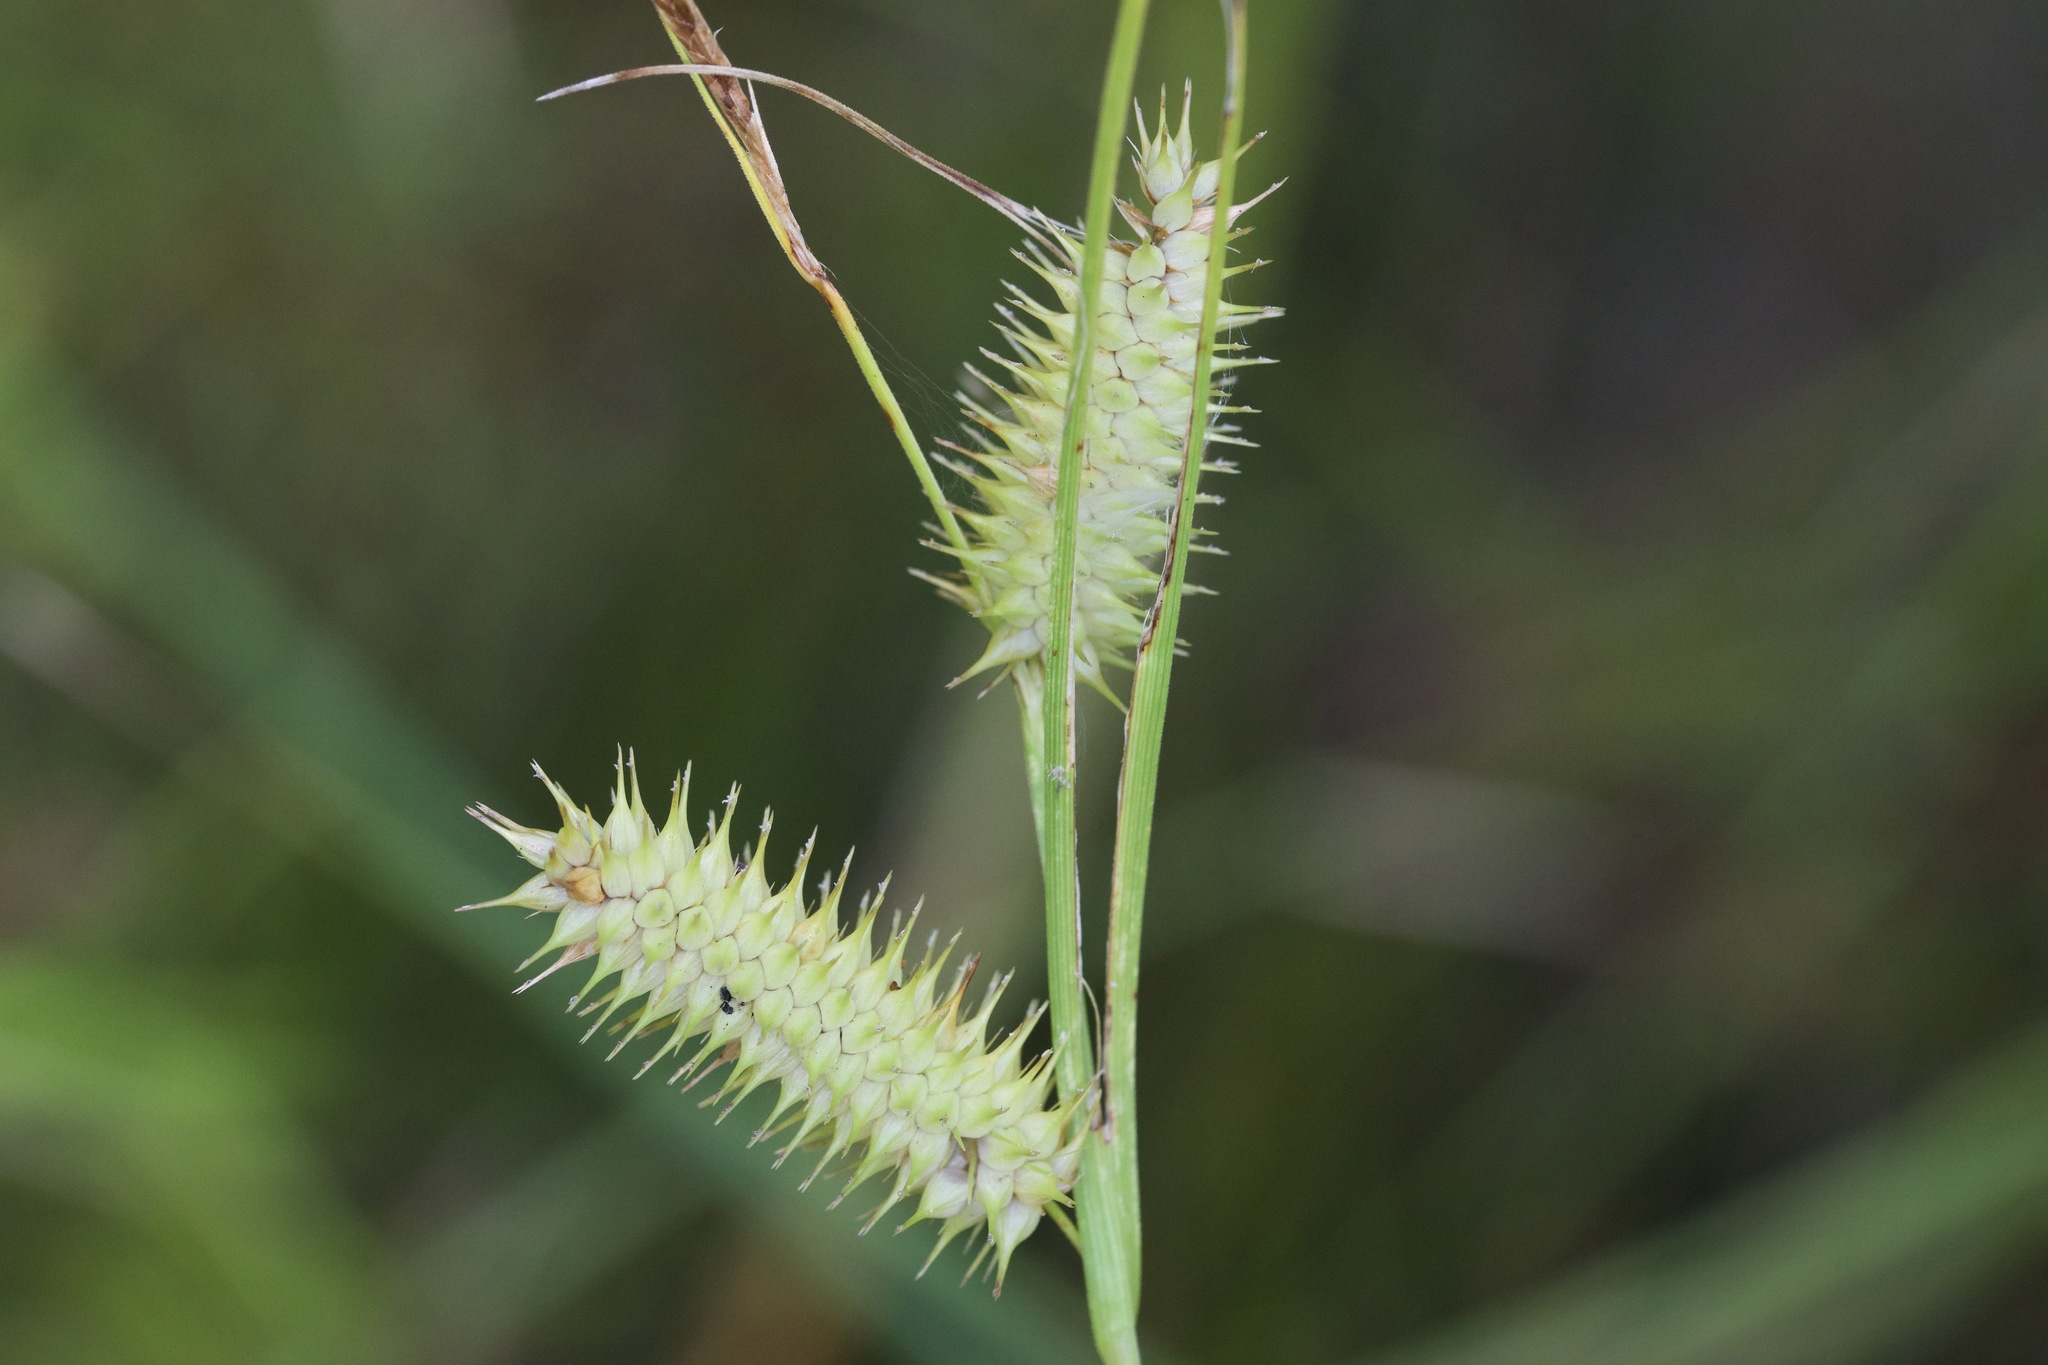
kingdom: Plantae
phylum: Tracheophyta
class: Liliopsida
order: Poales
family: Cyperaceae
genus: Carex
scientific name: Carex hystericina
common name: Bottlebrush sedge
